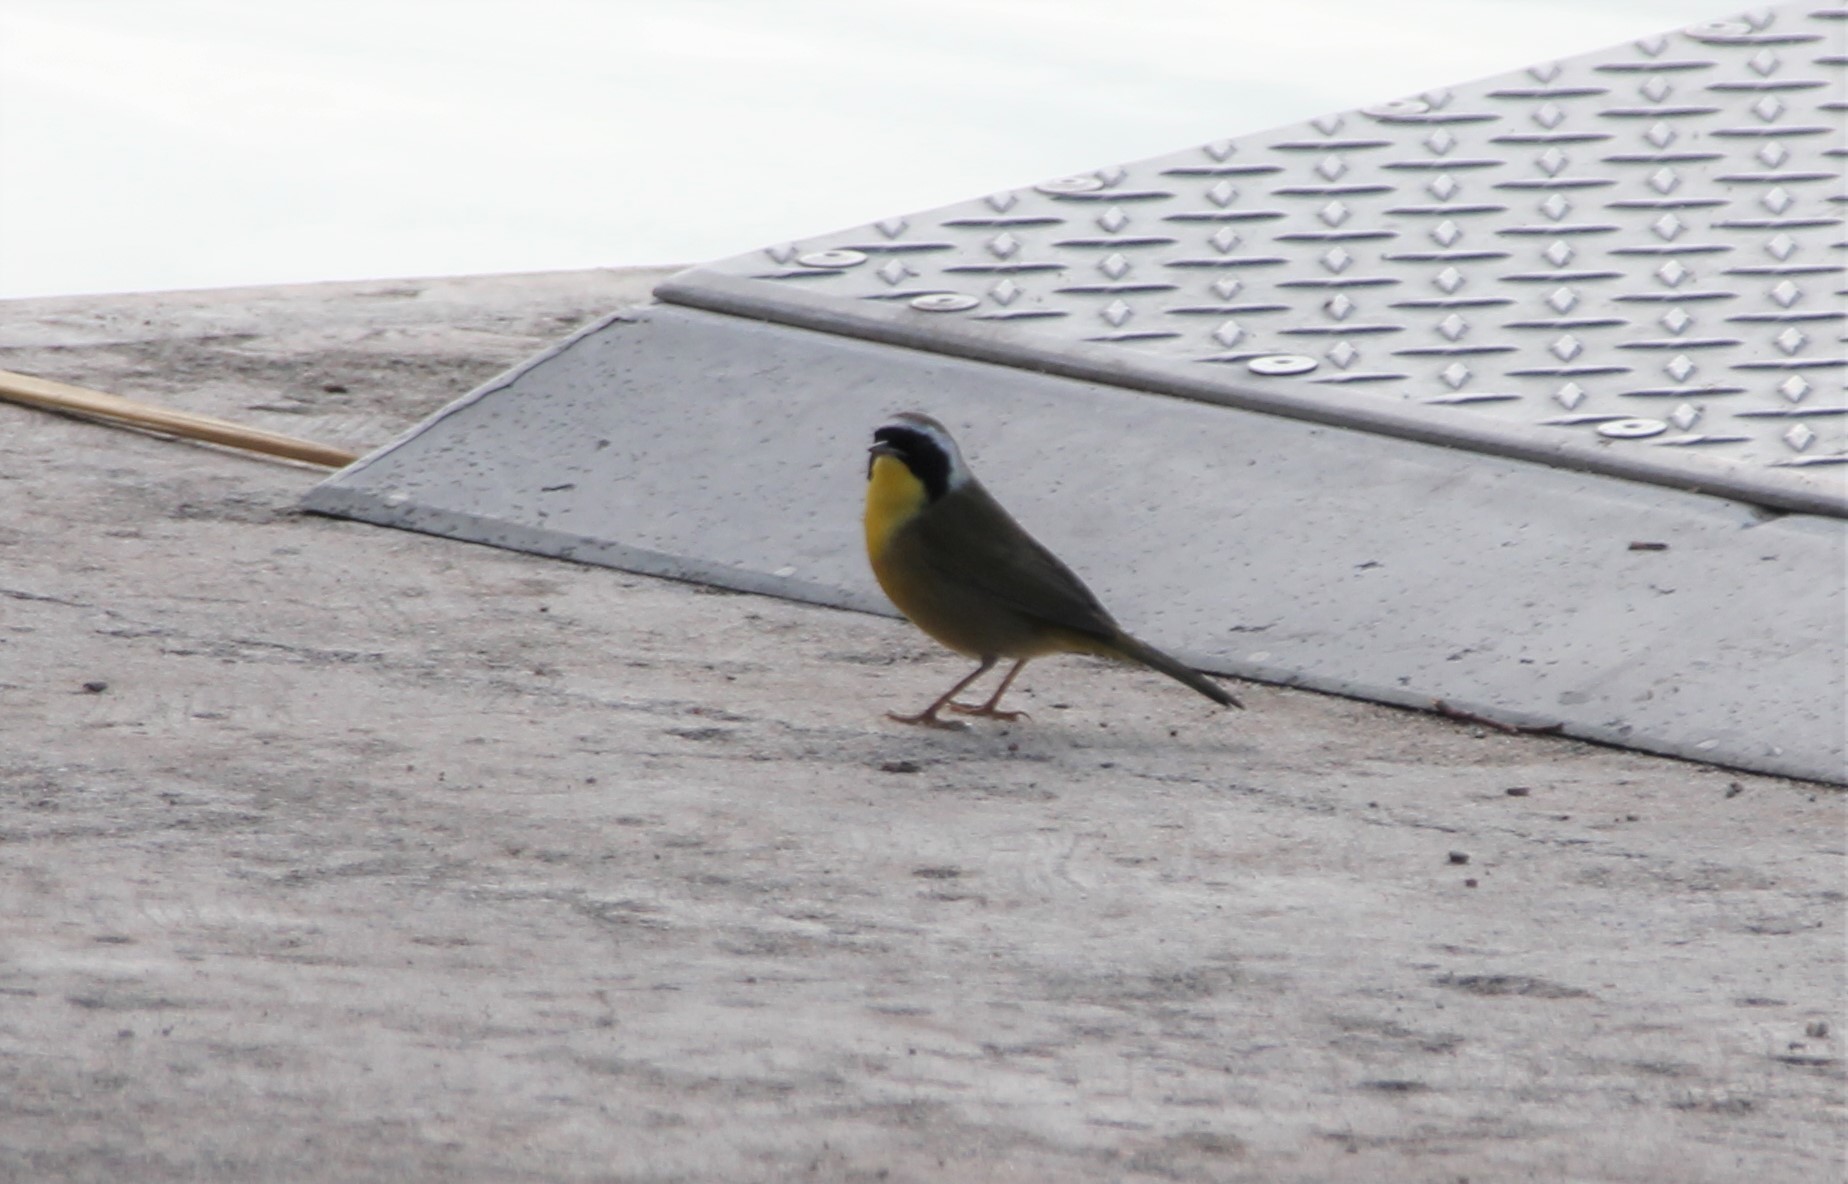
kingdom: Animalia
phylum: Chordata
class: Aves
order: Passeriformes
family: Parulidae
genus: Geothlypis
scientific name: Geothlypis trichas
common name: Common yellowthroat
